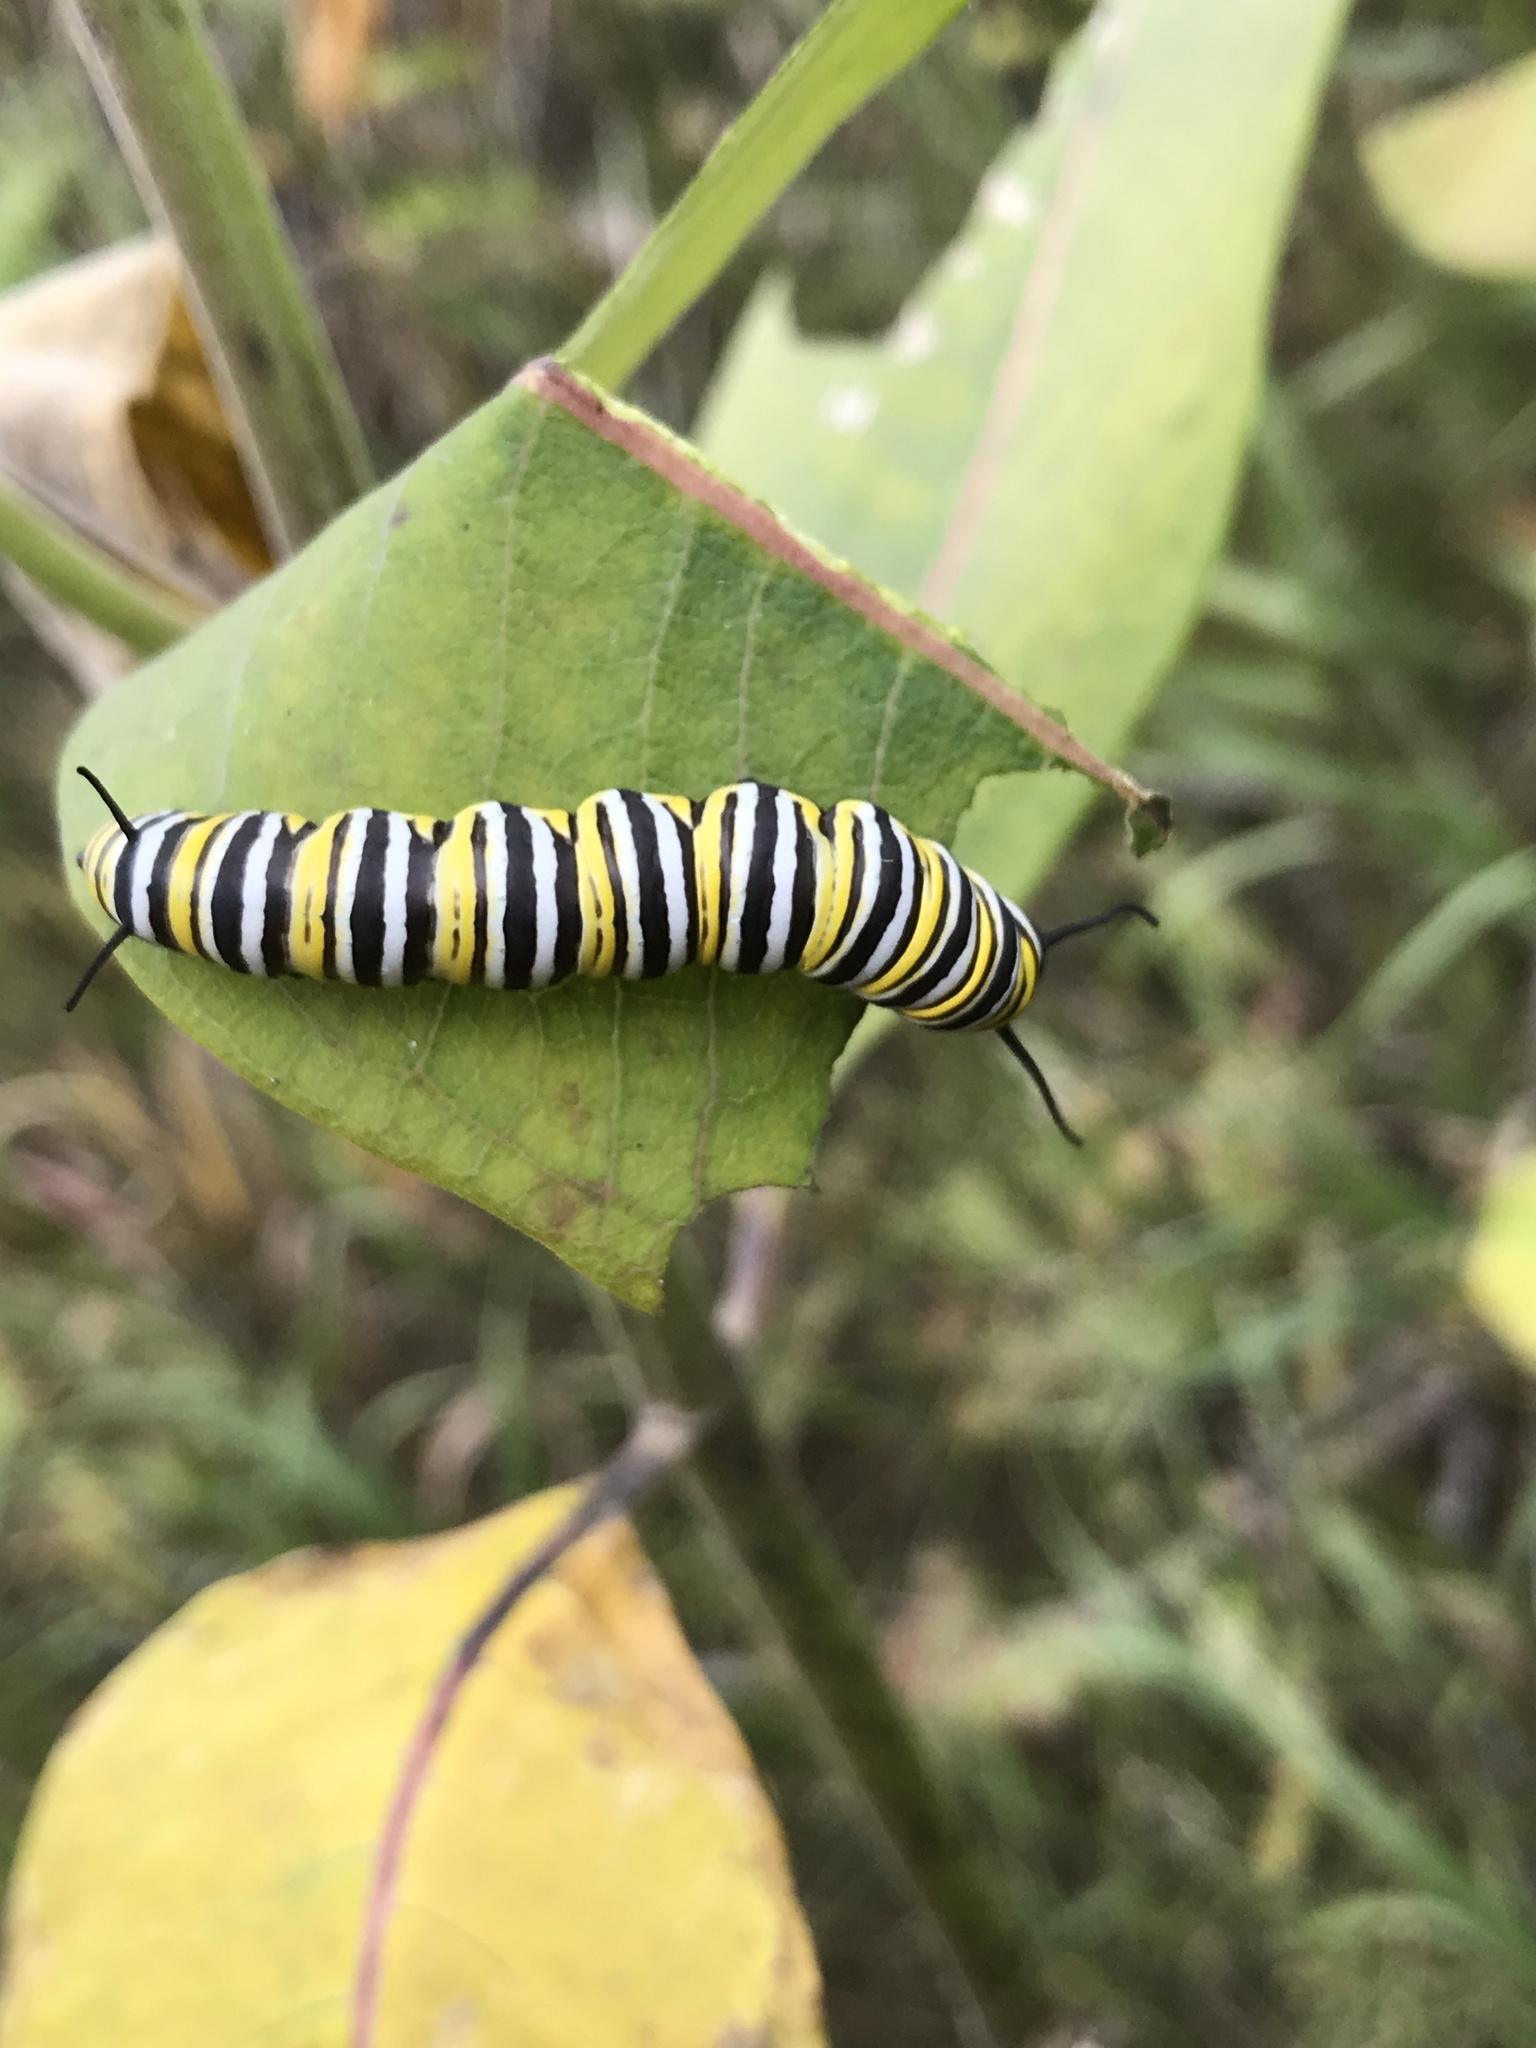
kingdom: Animalia
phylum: Arthropoda
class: Insecta
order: Lepidoptera
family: Nymphalidae
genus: Danaus
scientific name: Danaus plexippus
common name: Monarch
